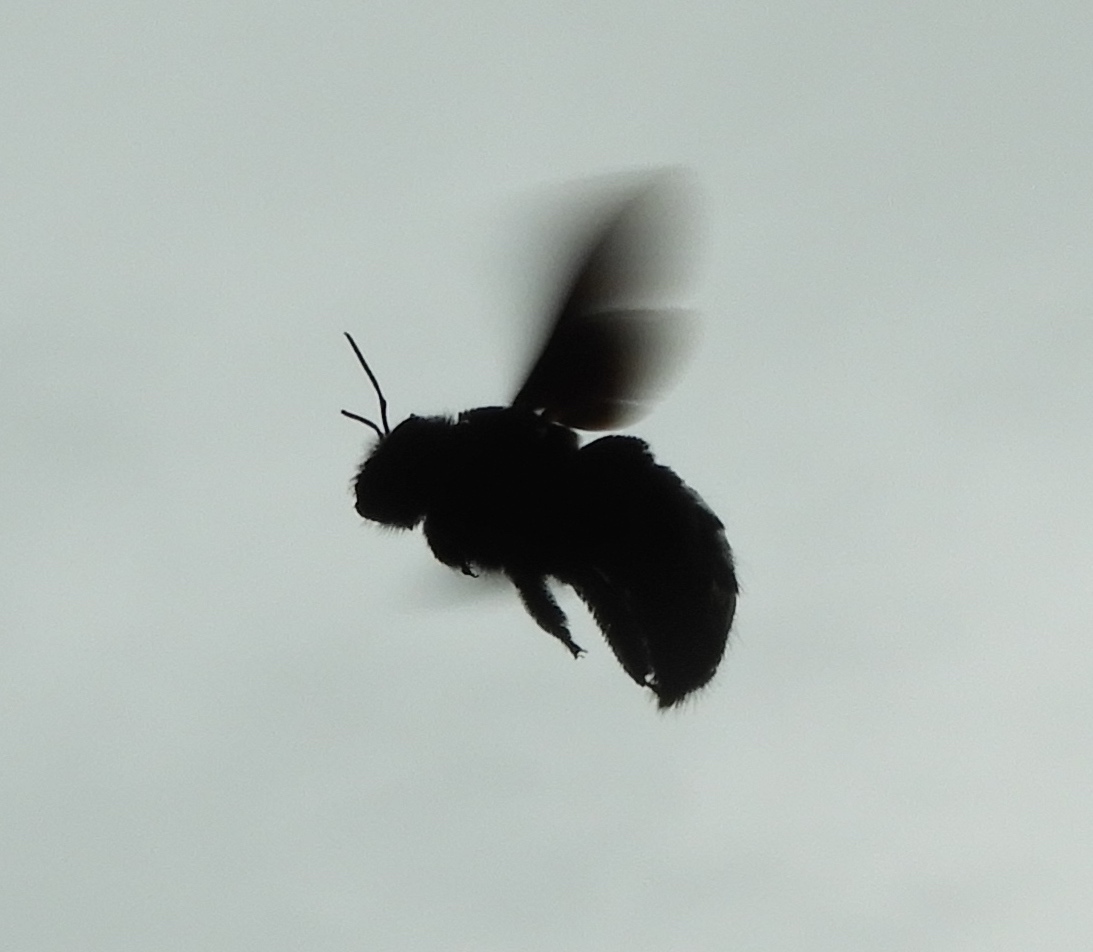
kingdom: Animalia
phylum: Arthropoda
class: Insecta
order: Hymenoptera
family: Apidae
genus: Xylocopa
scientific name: Xylocopa fimbriata
